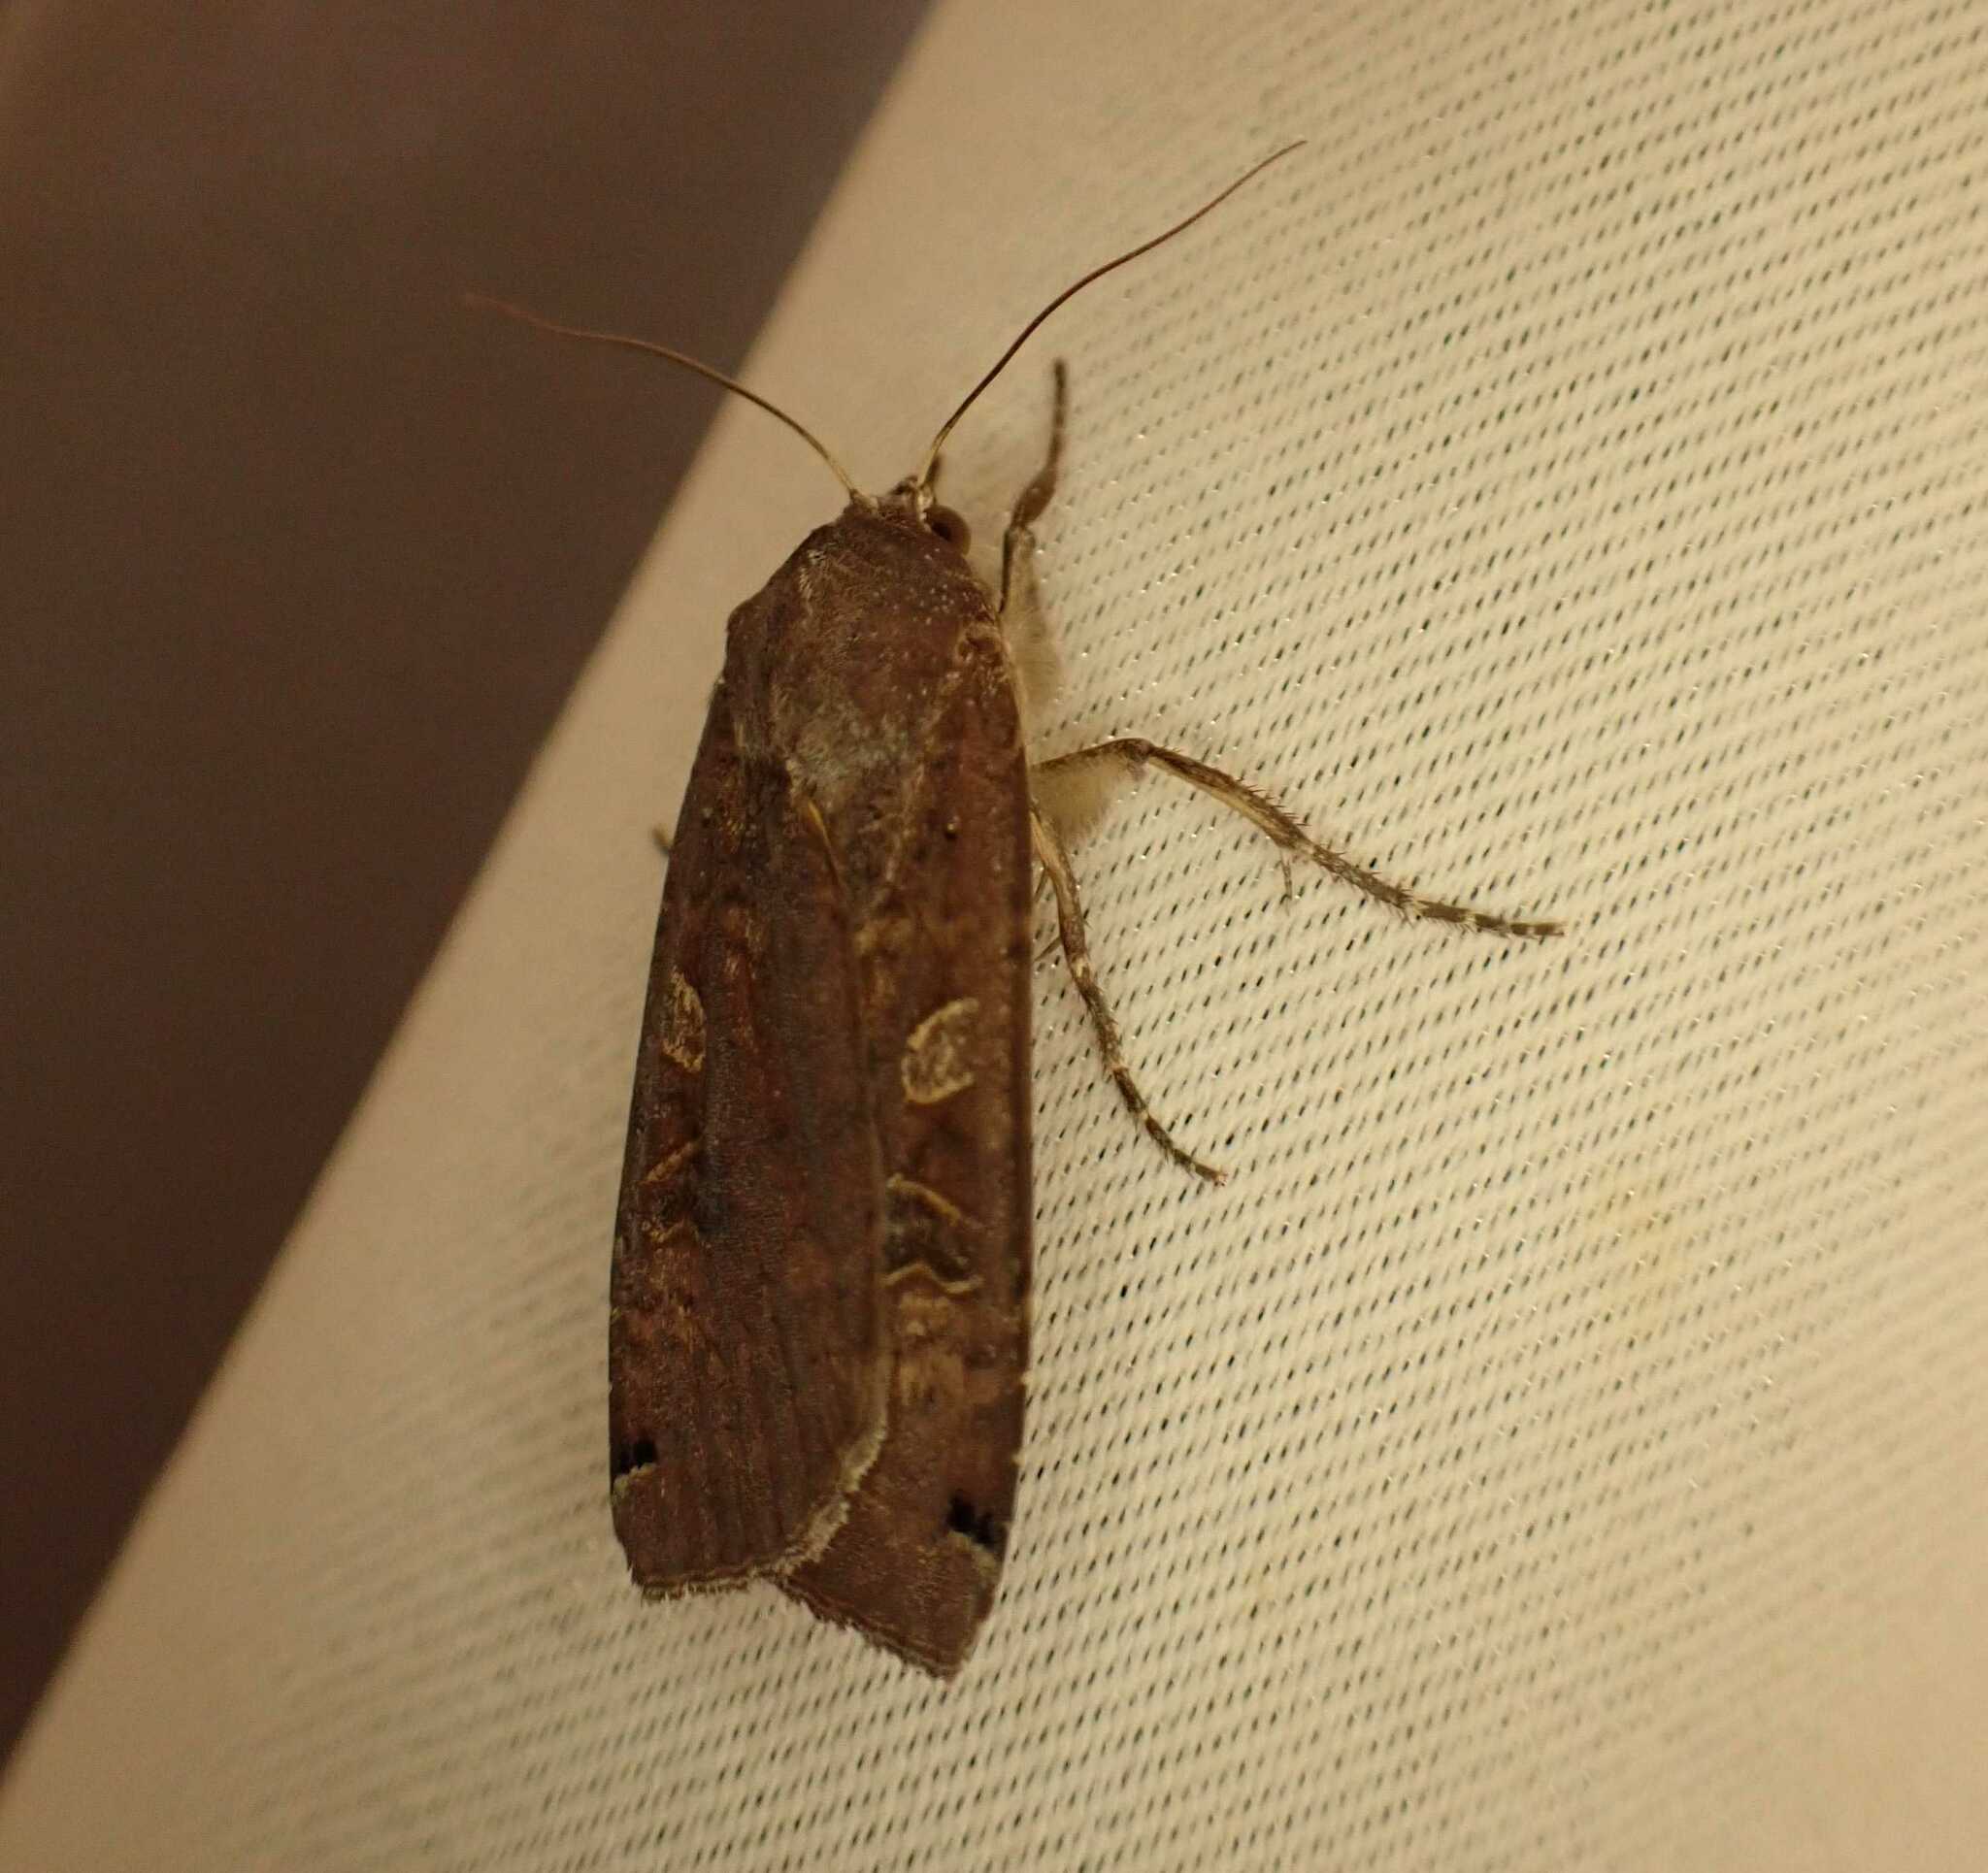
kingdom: Animalia
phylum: Arthropoda
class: Insecta
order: Lepidoptera
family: Noctuidae
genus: Noctua
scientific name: Noctua pronuba
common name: Large yellow underwing
